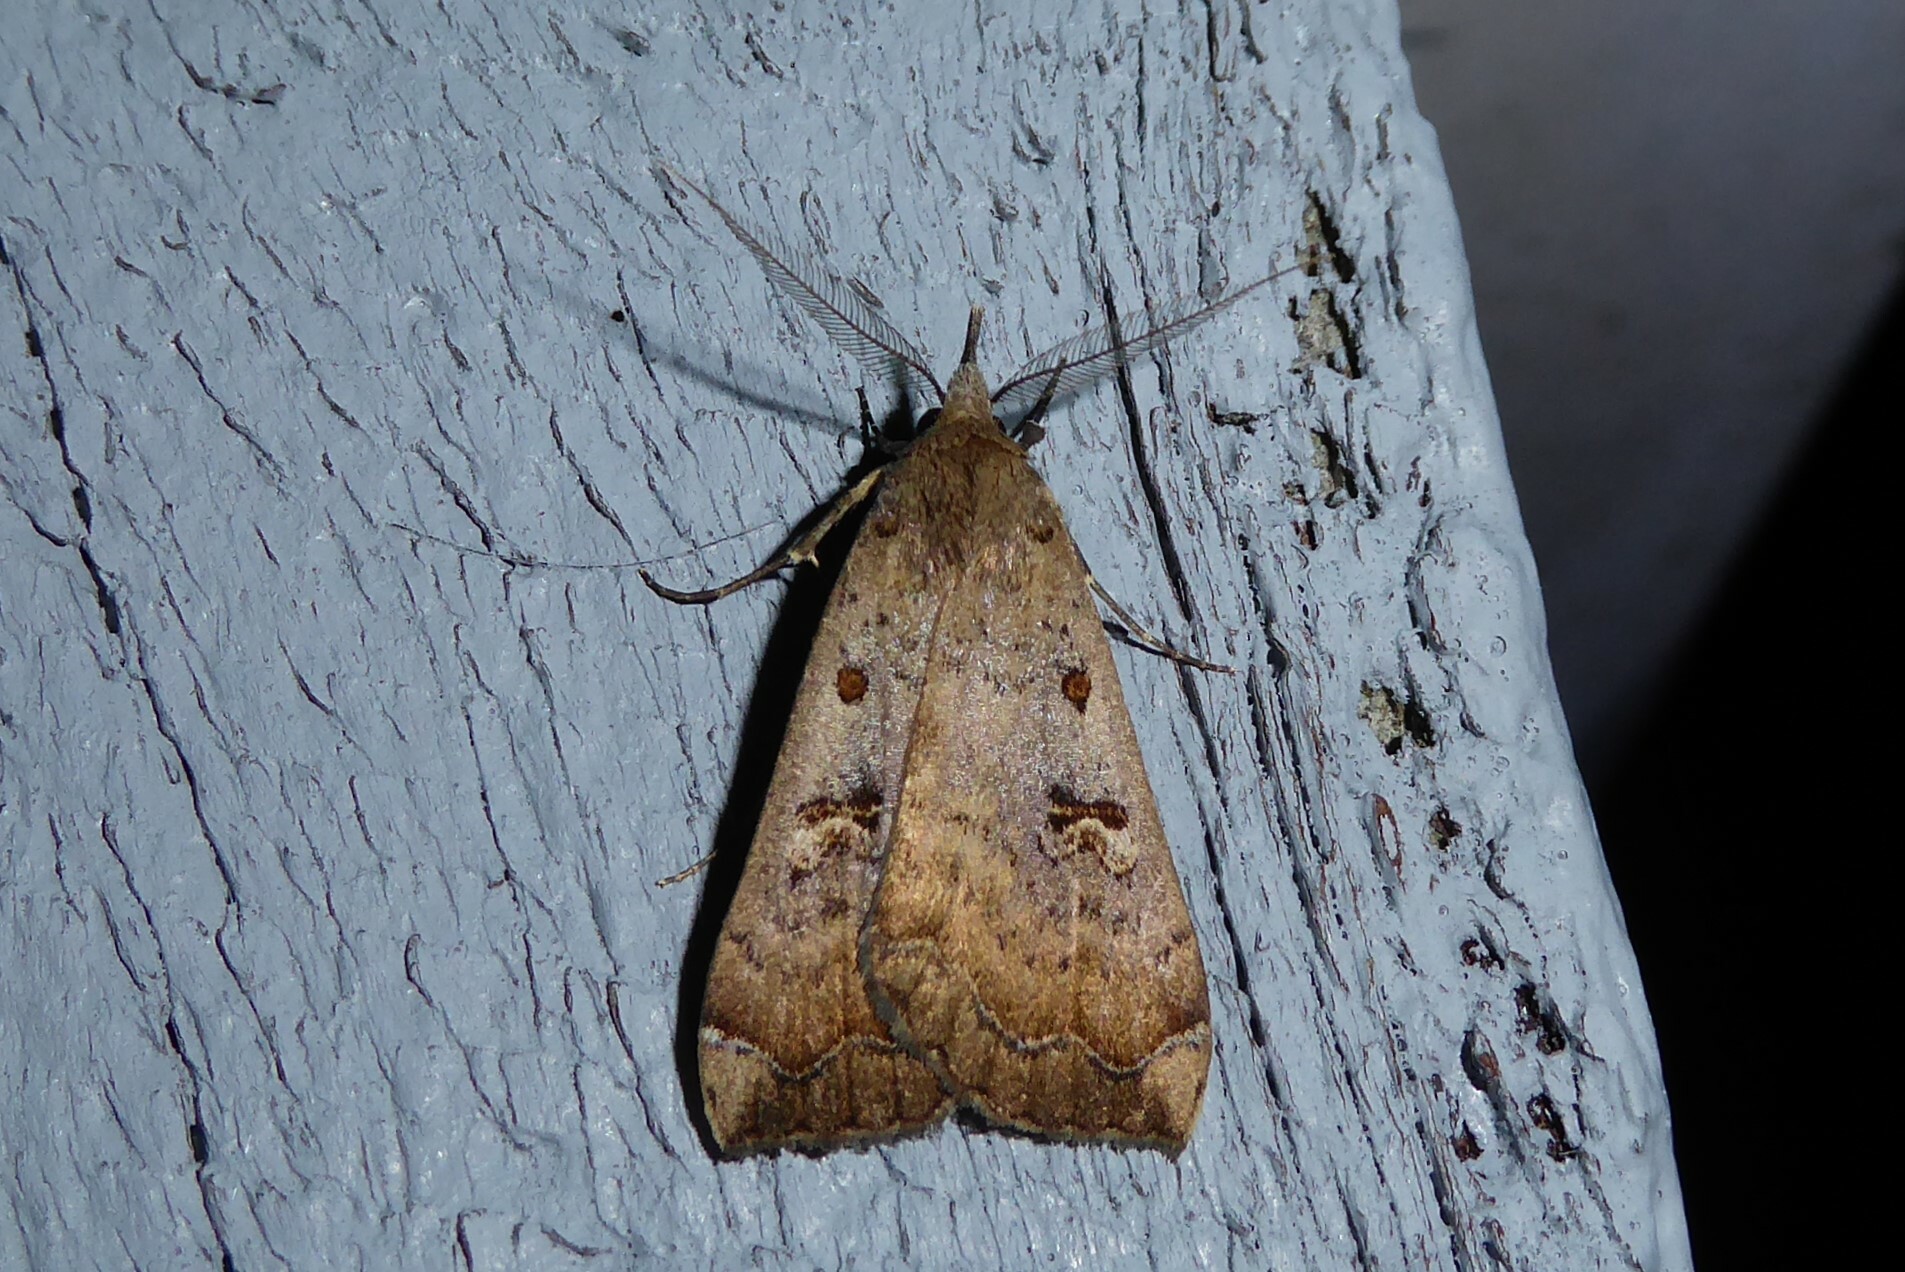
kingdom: Animalia
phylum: Arthropoda
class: Insecta
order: Lepidoptera
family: Erebidae
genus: Rhapsa
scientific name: Rhapsa scotosialis
